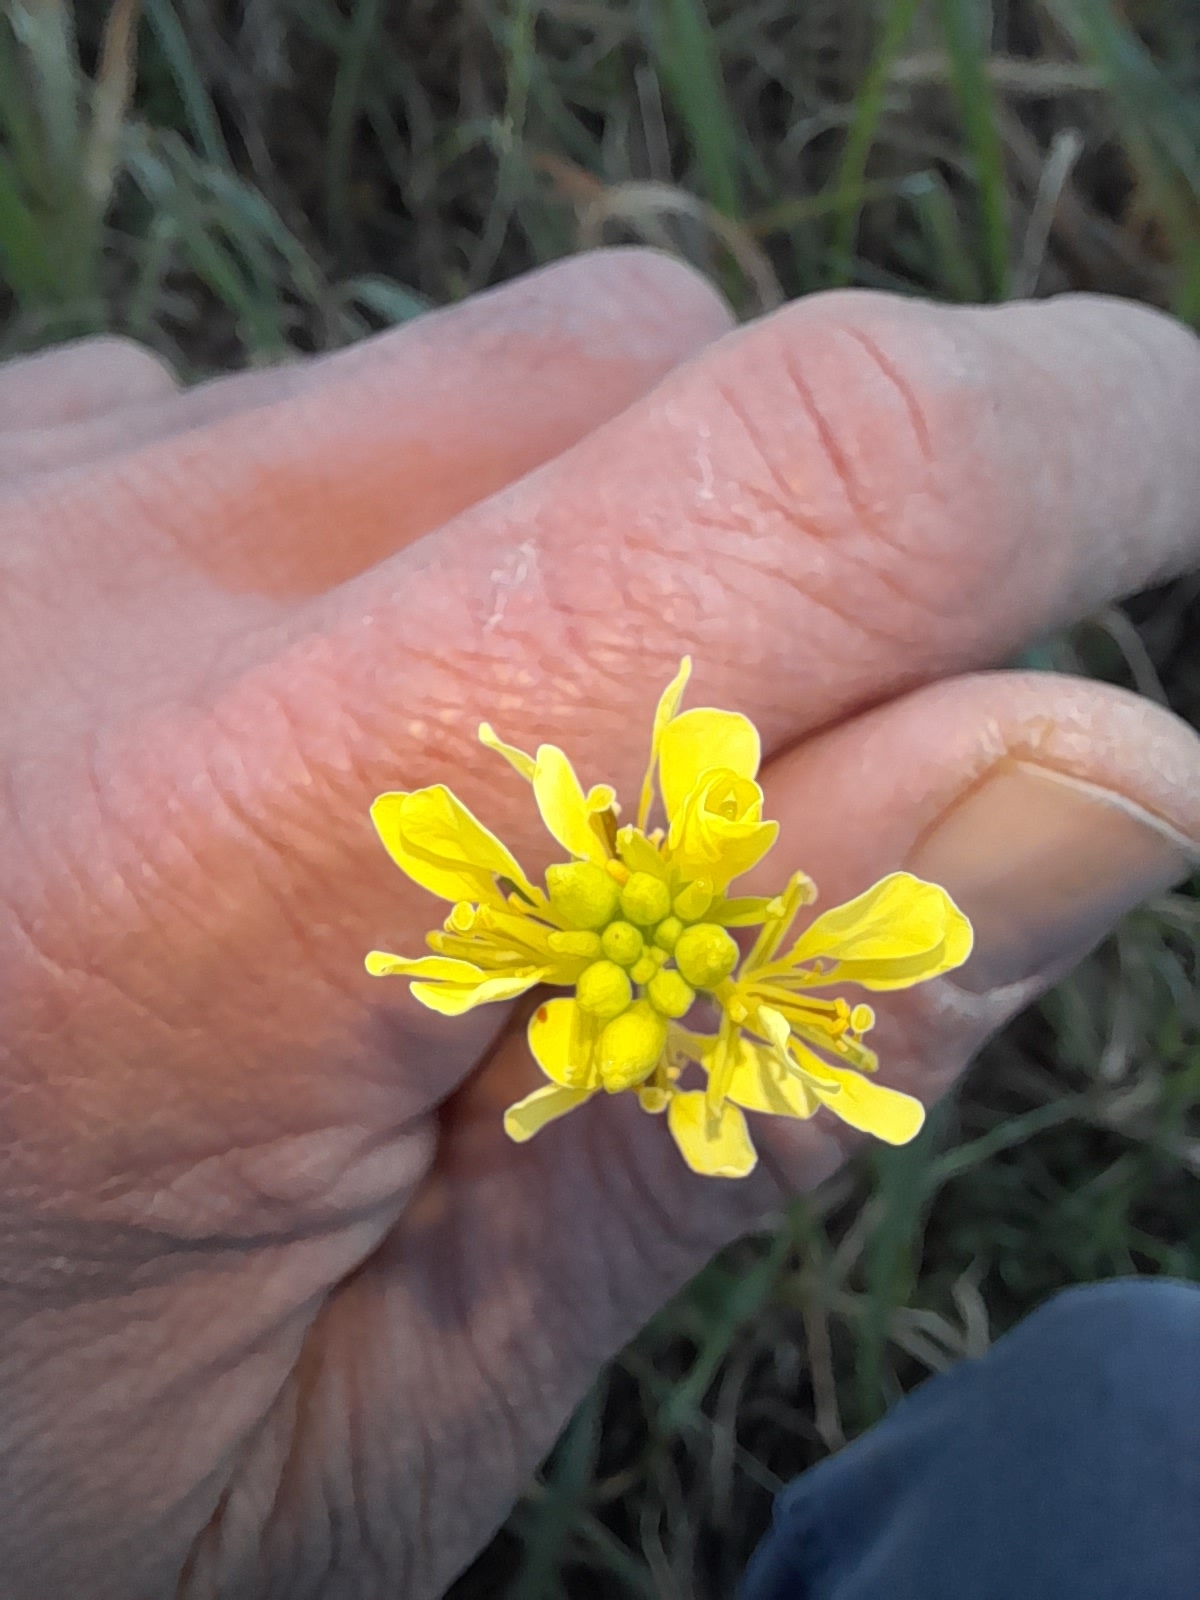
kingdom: Plantae
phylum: Tracheophyta
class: Magnoliopsida
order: Brassicales
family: Brassicaceae
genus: Sinapis
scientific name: Sinapis arvensis
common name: Charlock
